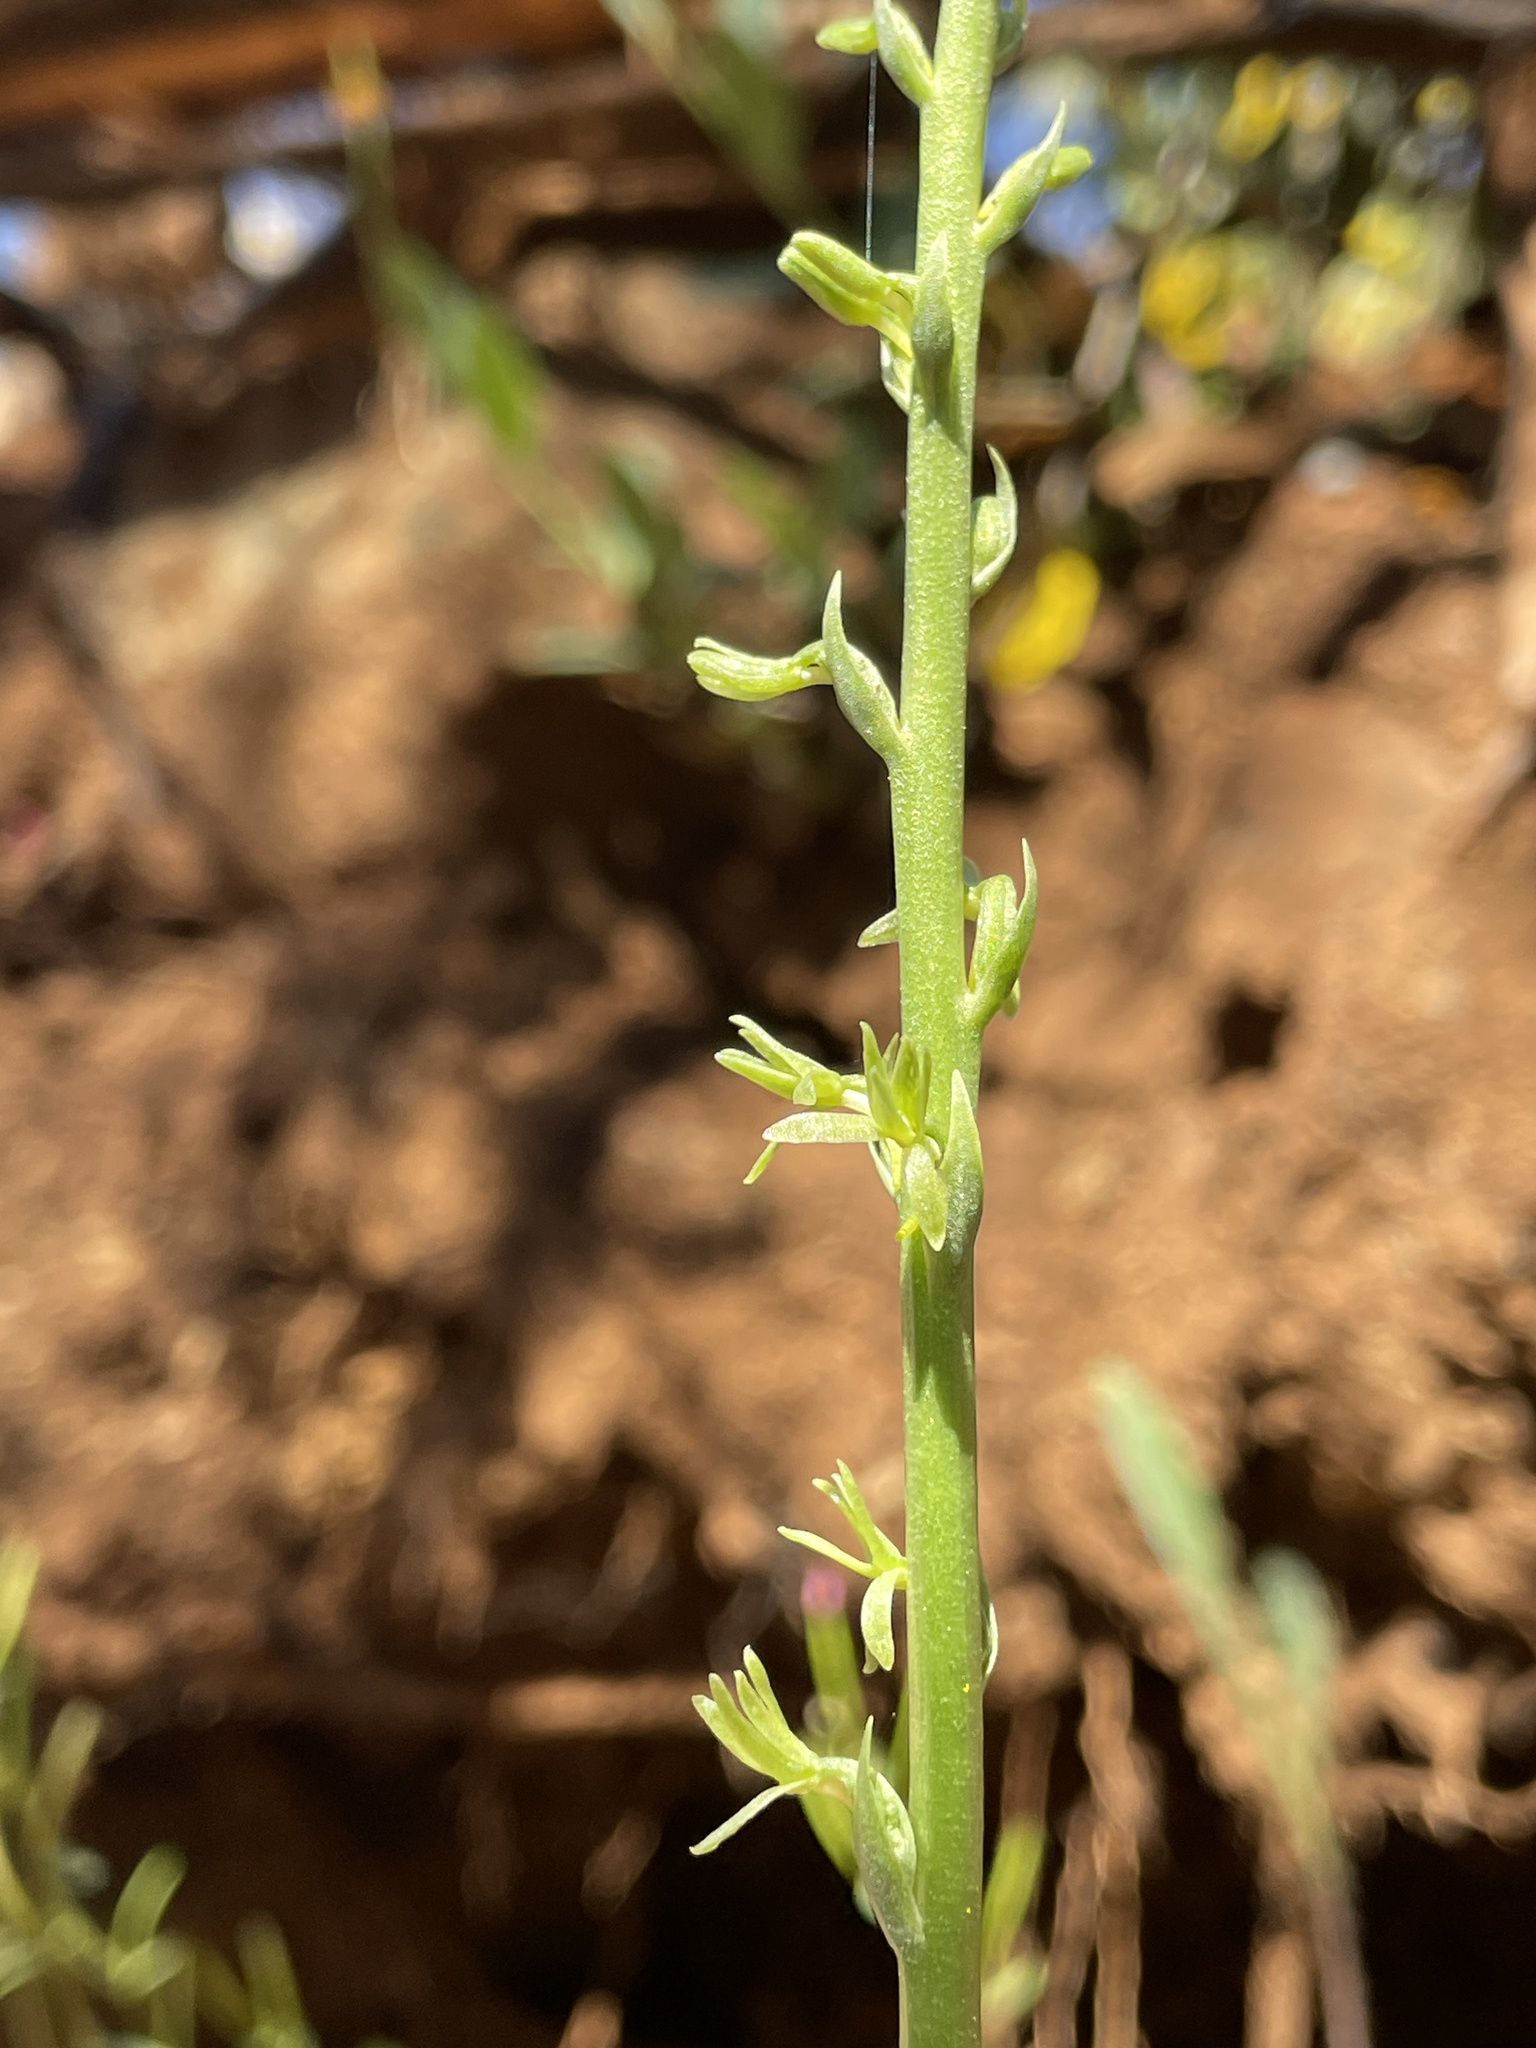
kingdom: Plantae
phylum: Tracheophyta
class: Liliopsida
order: Asparagales
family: Orchidaceae
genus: Platanthera
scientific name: Platanthera leptopetala
